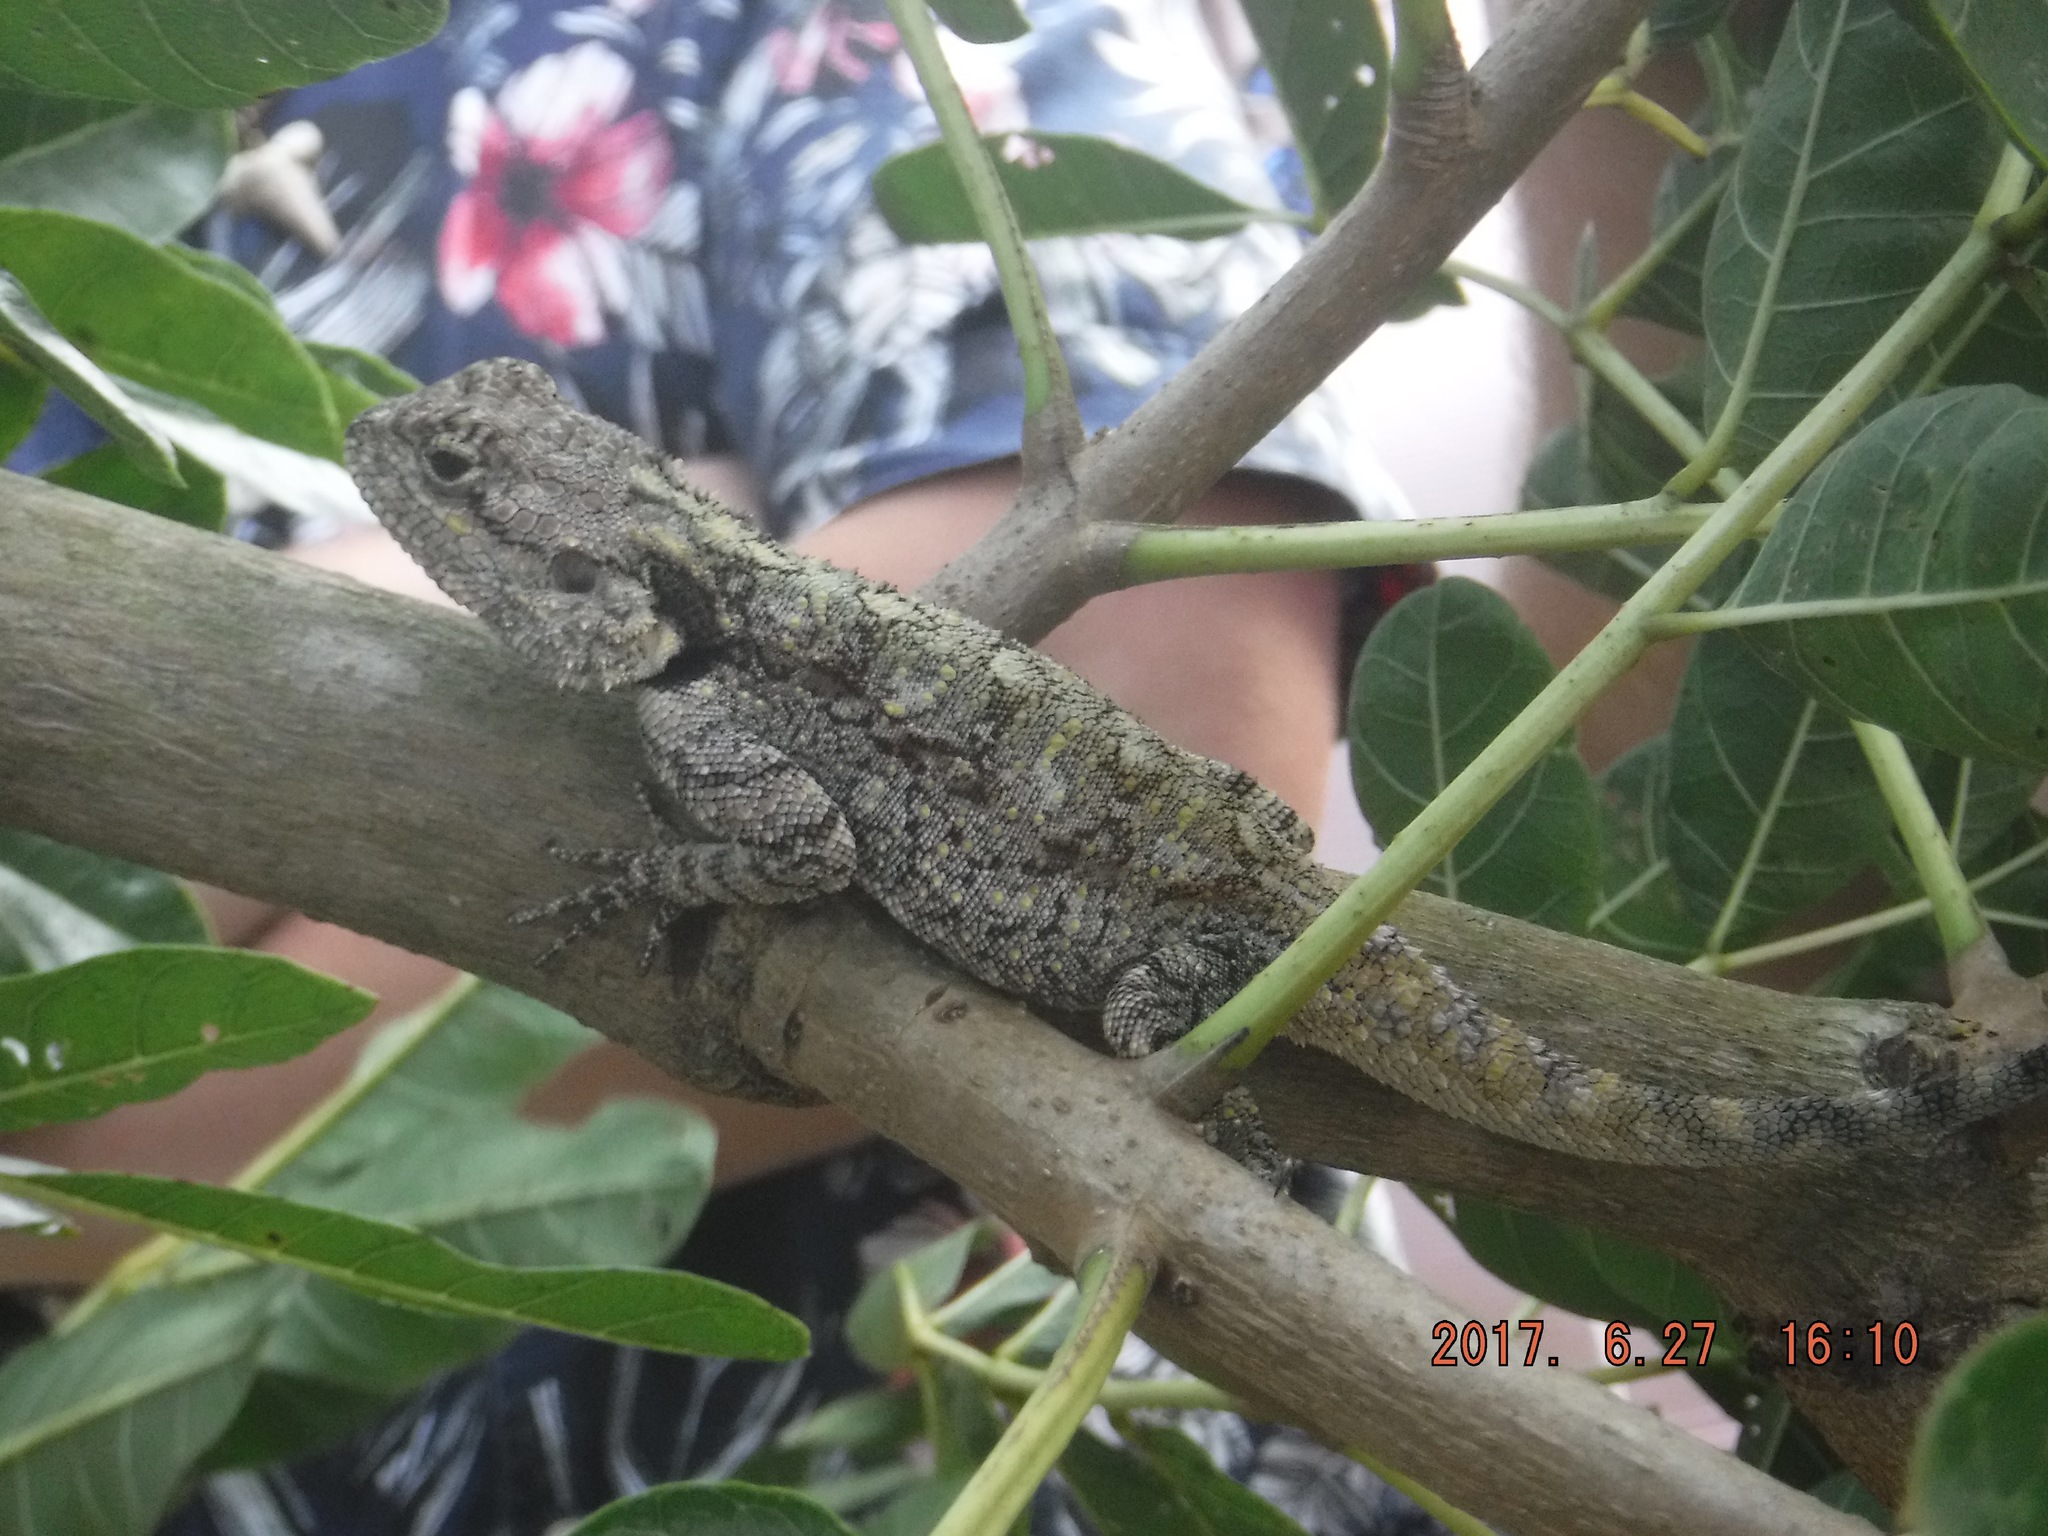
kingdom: Animalia
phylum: Chordata
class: Squamata
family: Agamidae
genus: Acanthocercus
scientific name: Acanthocercus atricollis
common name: Southern tree agama
